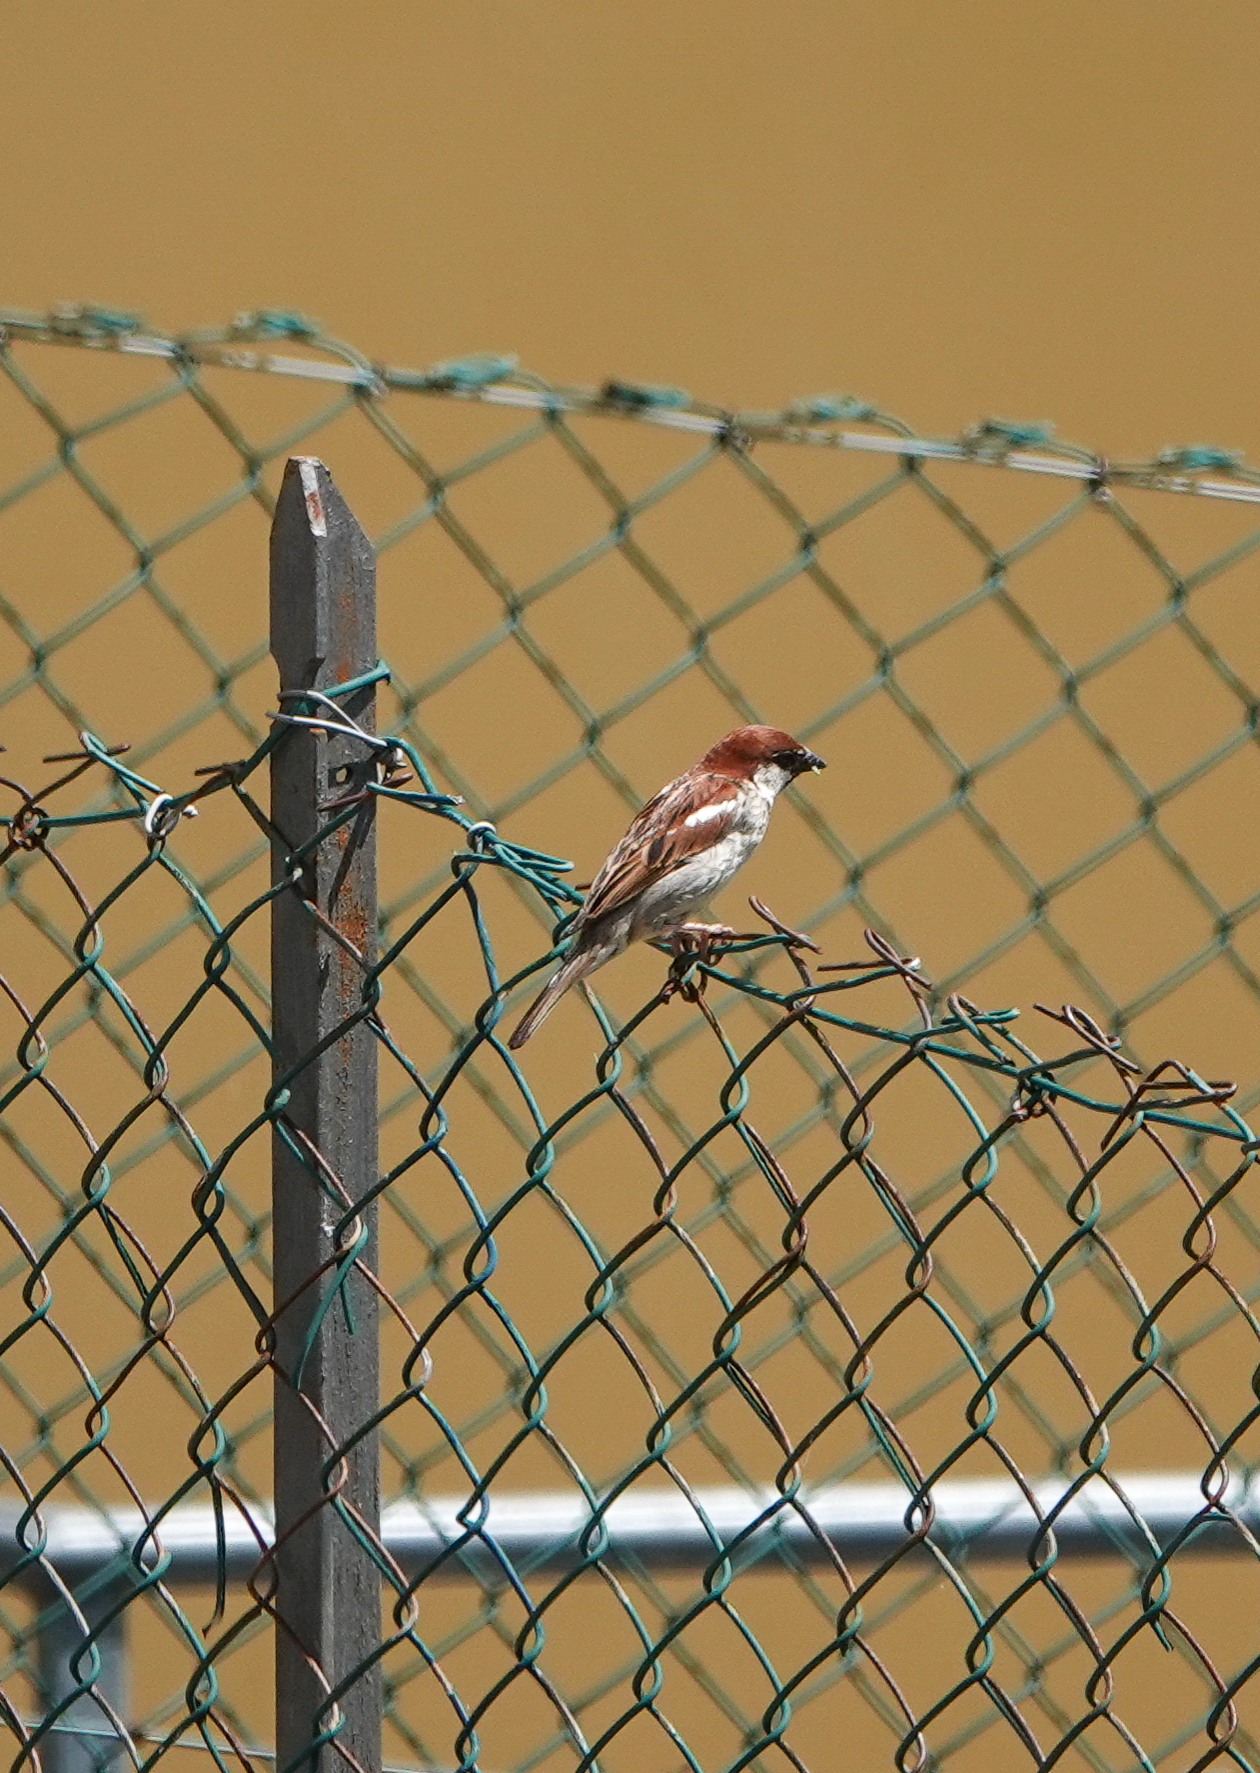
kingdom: Animalia
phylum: Chordata
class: Aves
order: Passeriformes
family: Passeridae
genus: Passer
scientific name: Passer italiae
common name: Italian sparrow
